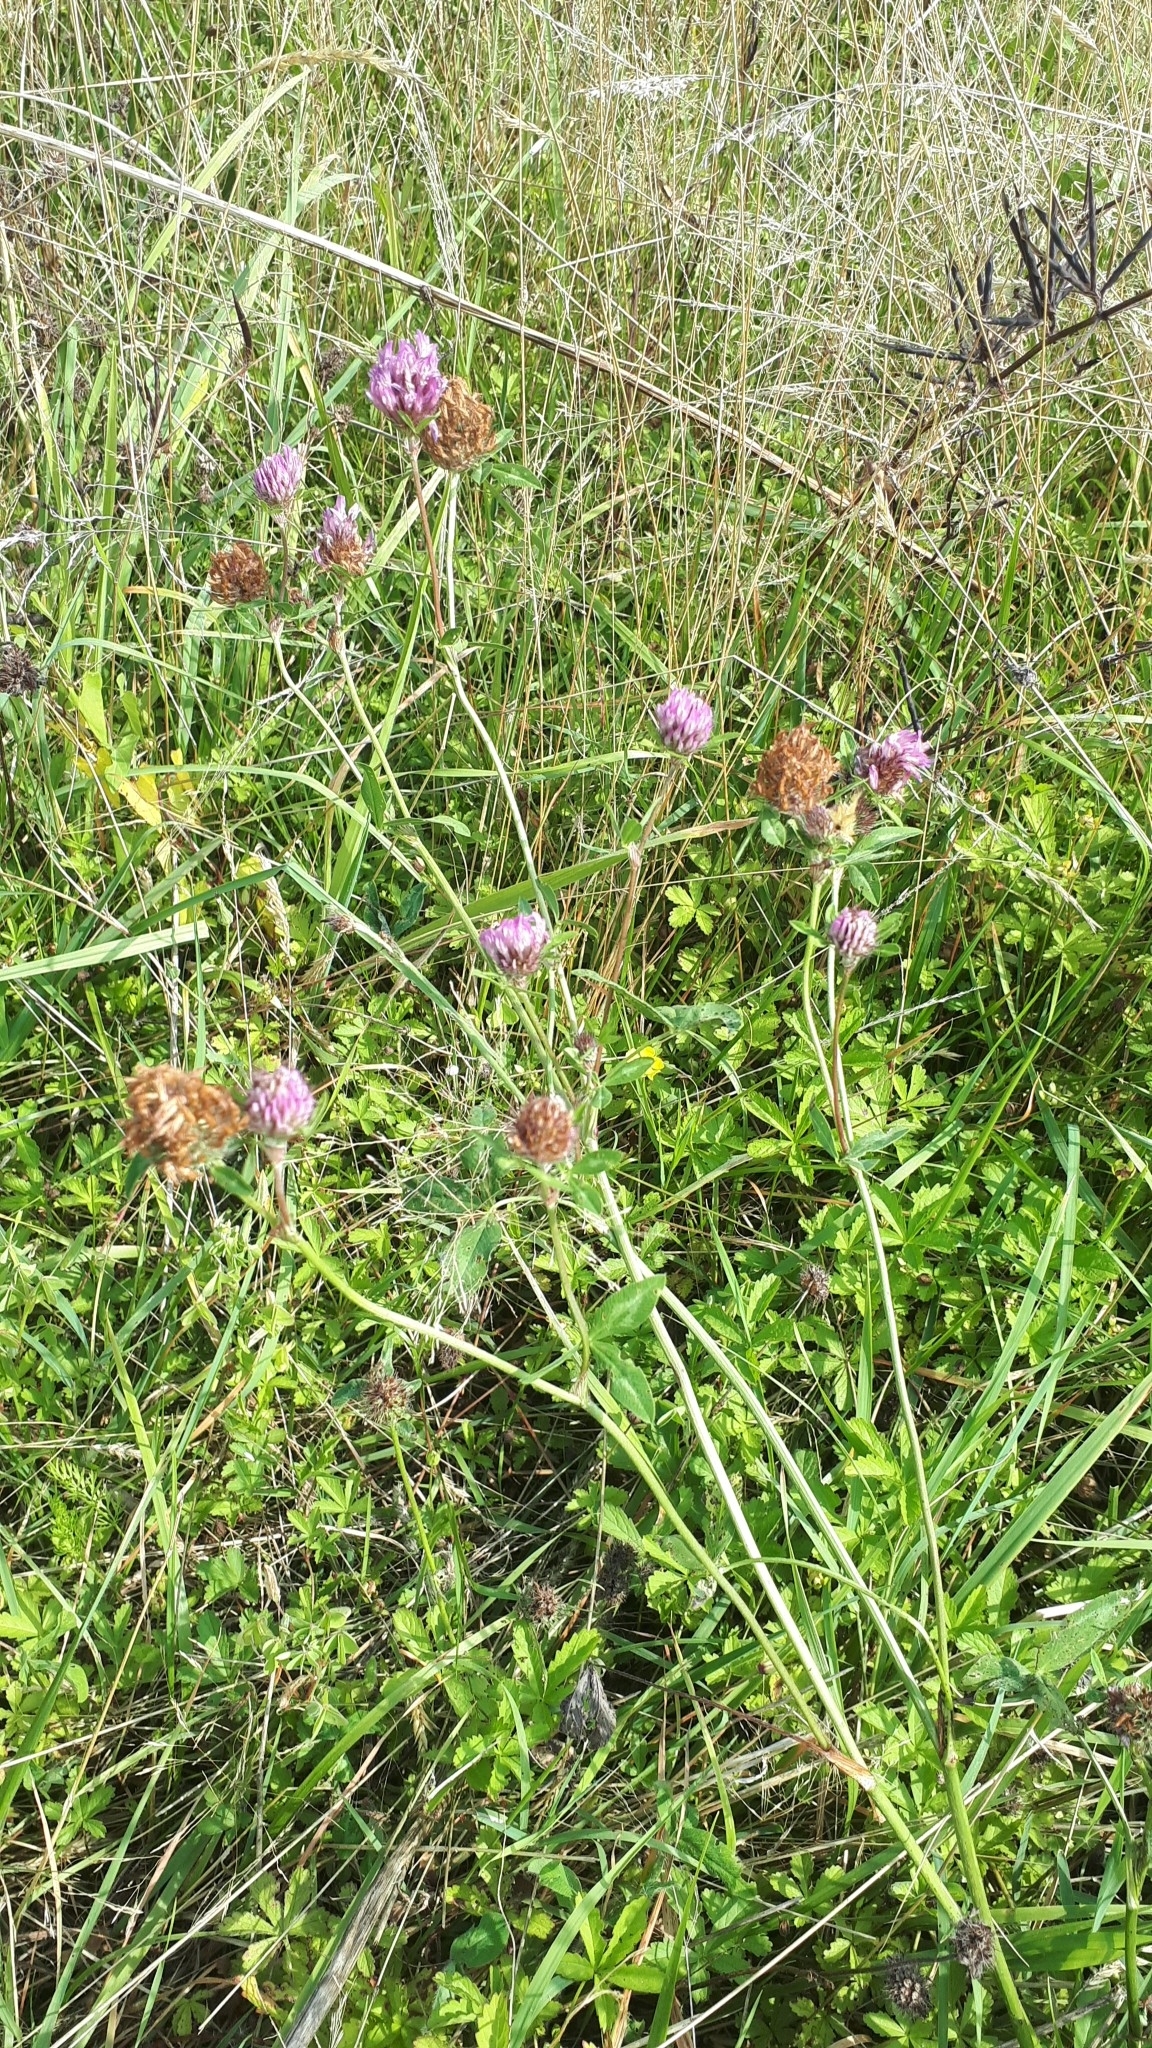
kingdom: Plantae
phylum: Tracheophyta
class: Magnoliopsida
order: Fabales
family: Fabaceae
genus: Trifolium
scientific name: Trifolium pratense
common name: Red clover
